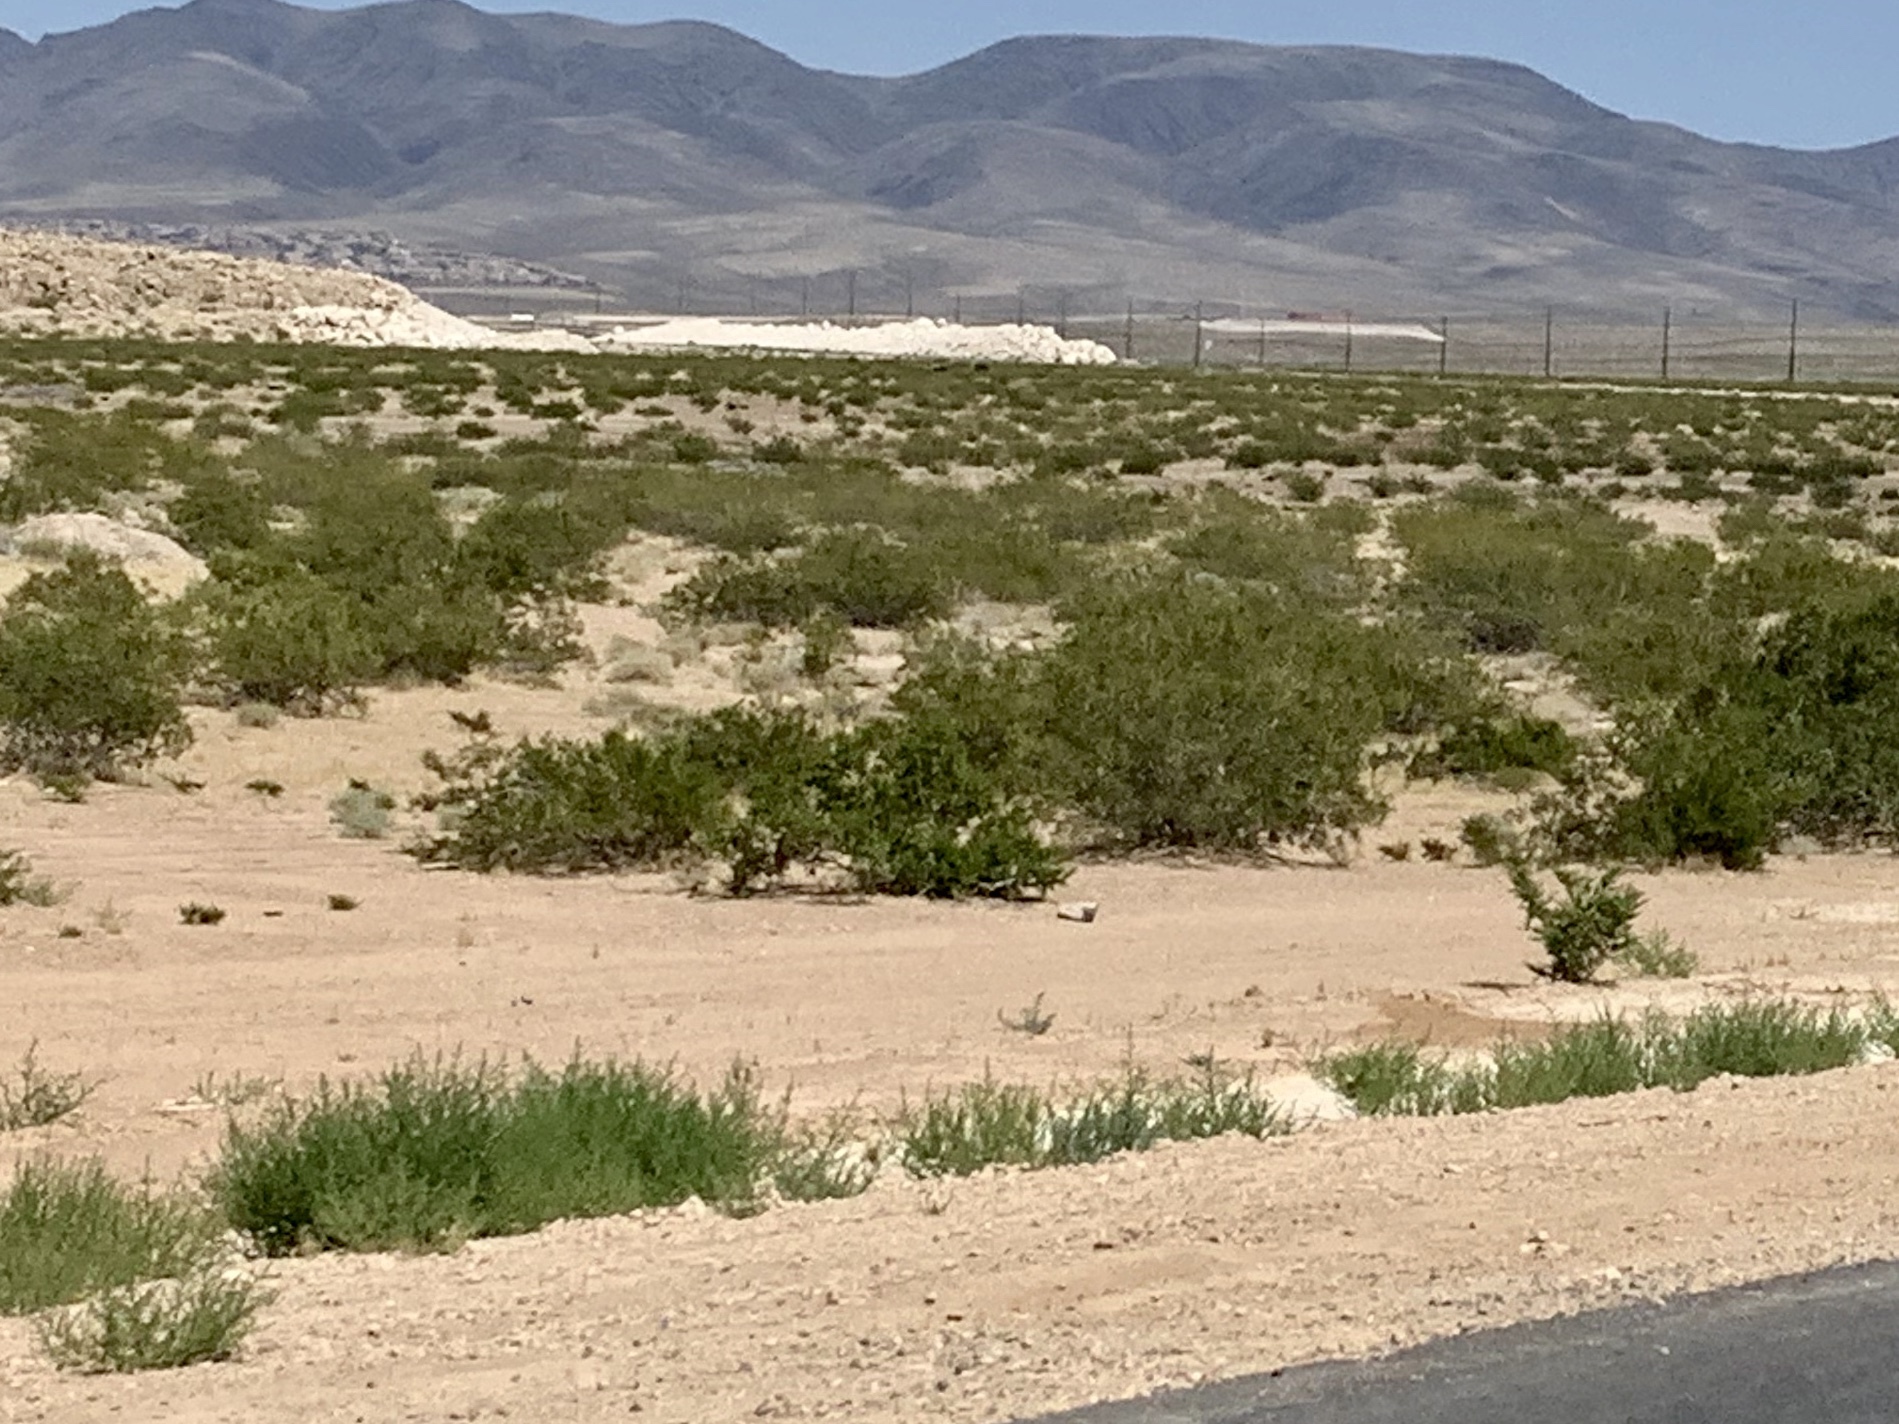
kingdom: Plantae
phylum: Tracheophyta
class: Magnoliopsida
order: Zygophyllales
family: Zygophyllaceae
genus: Larrea
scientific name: Larrea tridentata
